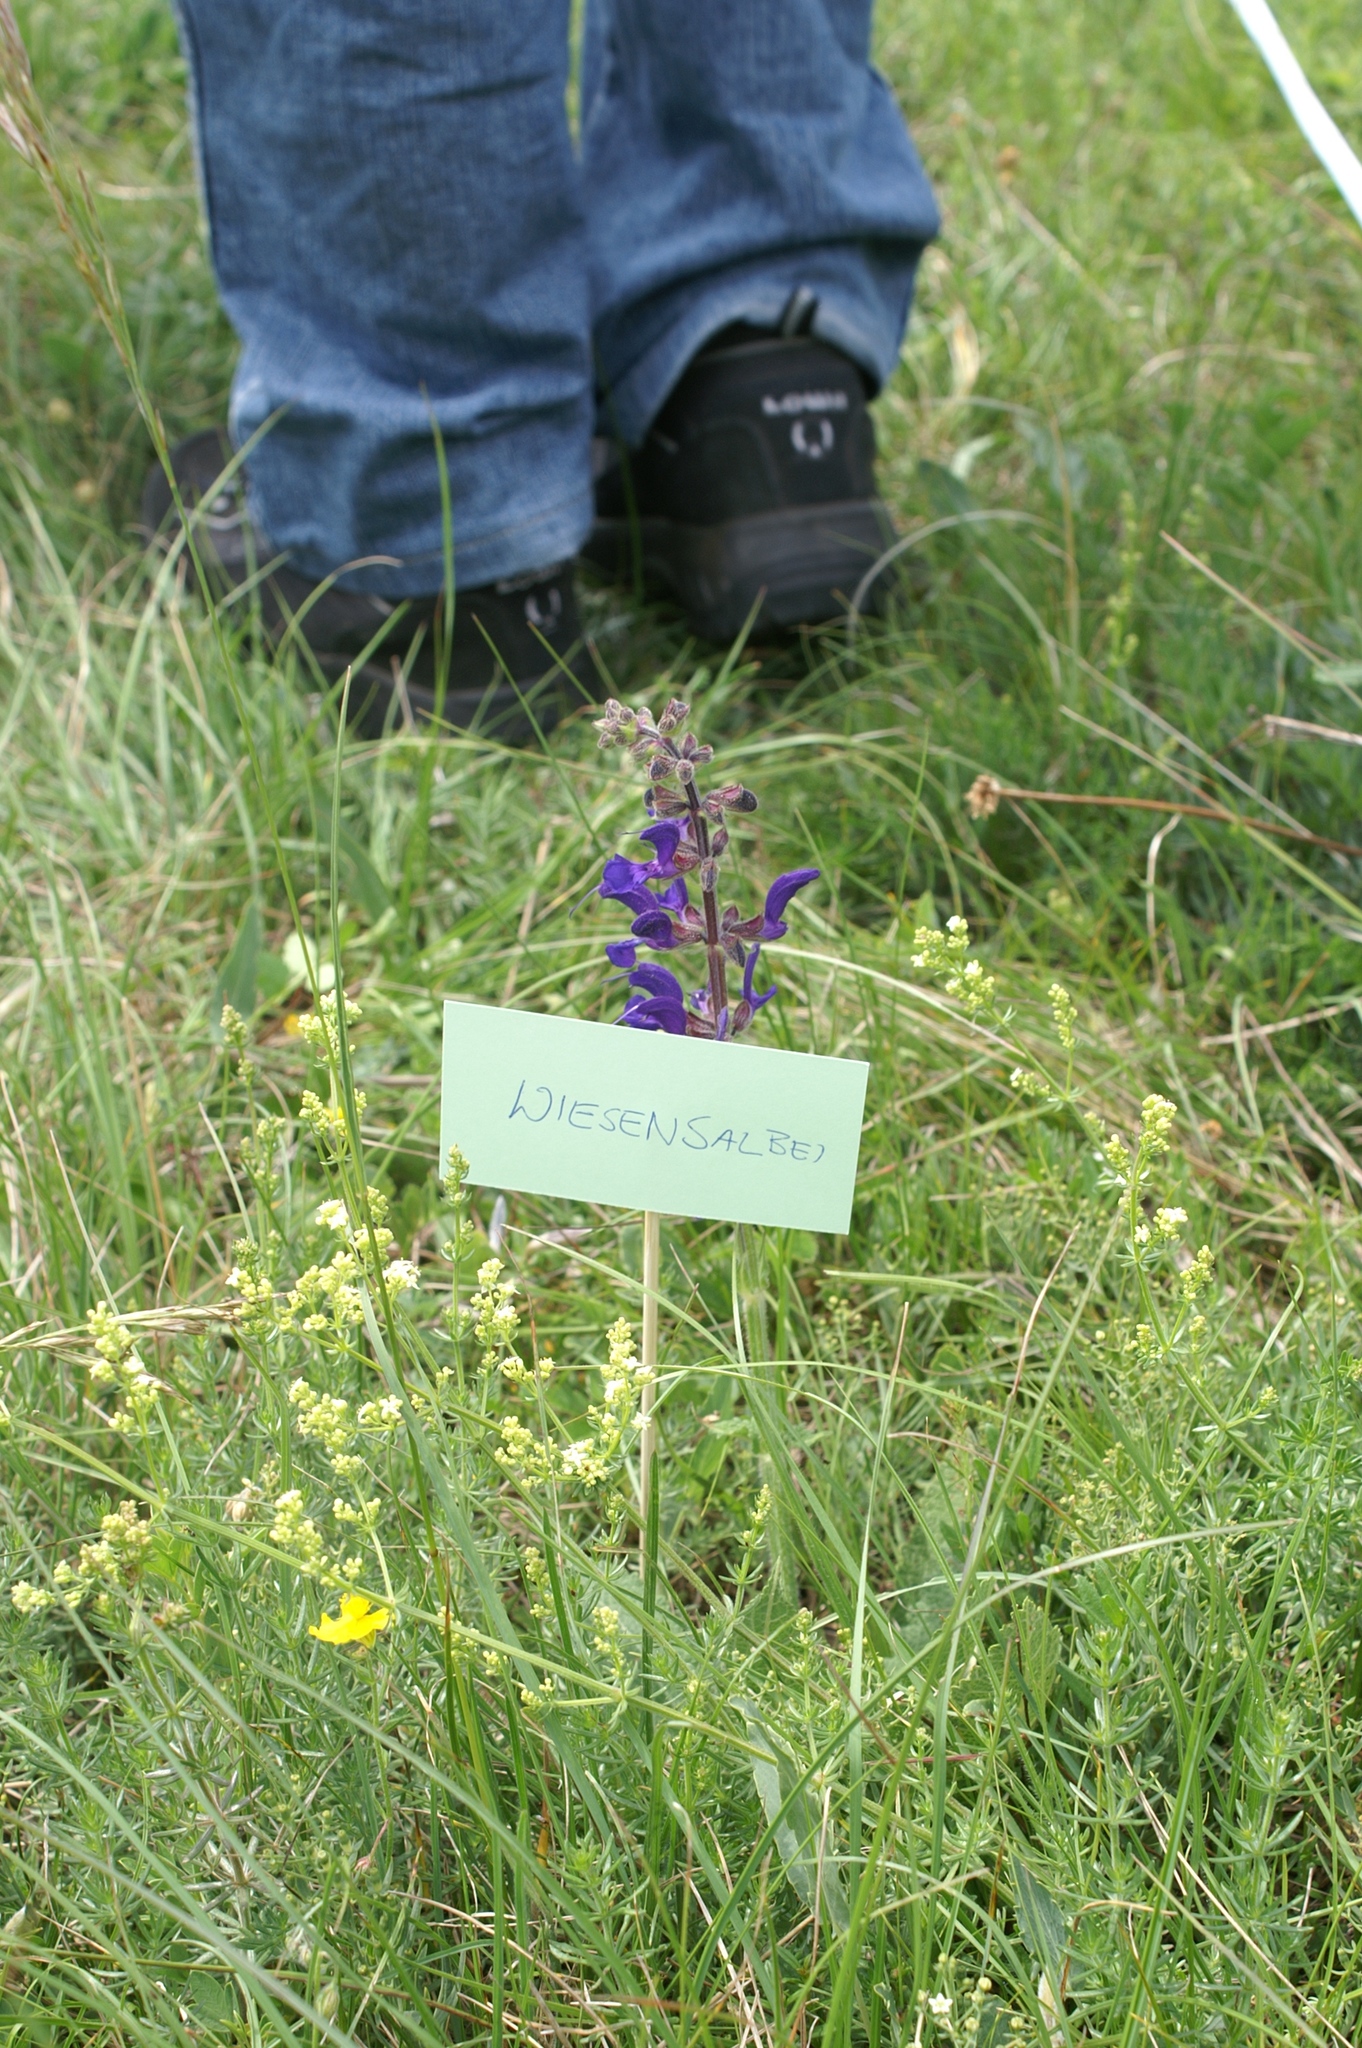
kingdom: Plantae
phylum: Tracheophyta
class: Magnoliopsida
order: Lamiales
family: Lamiaceae
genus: Salvia
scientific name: Salvia pratensis
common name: Meadow sage
